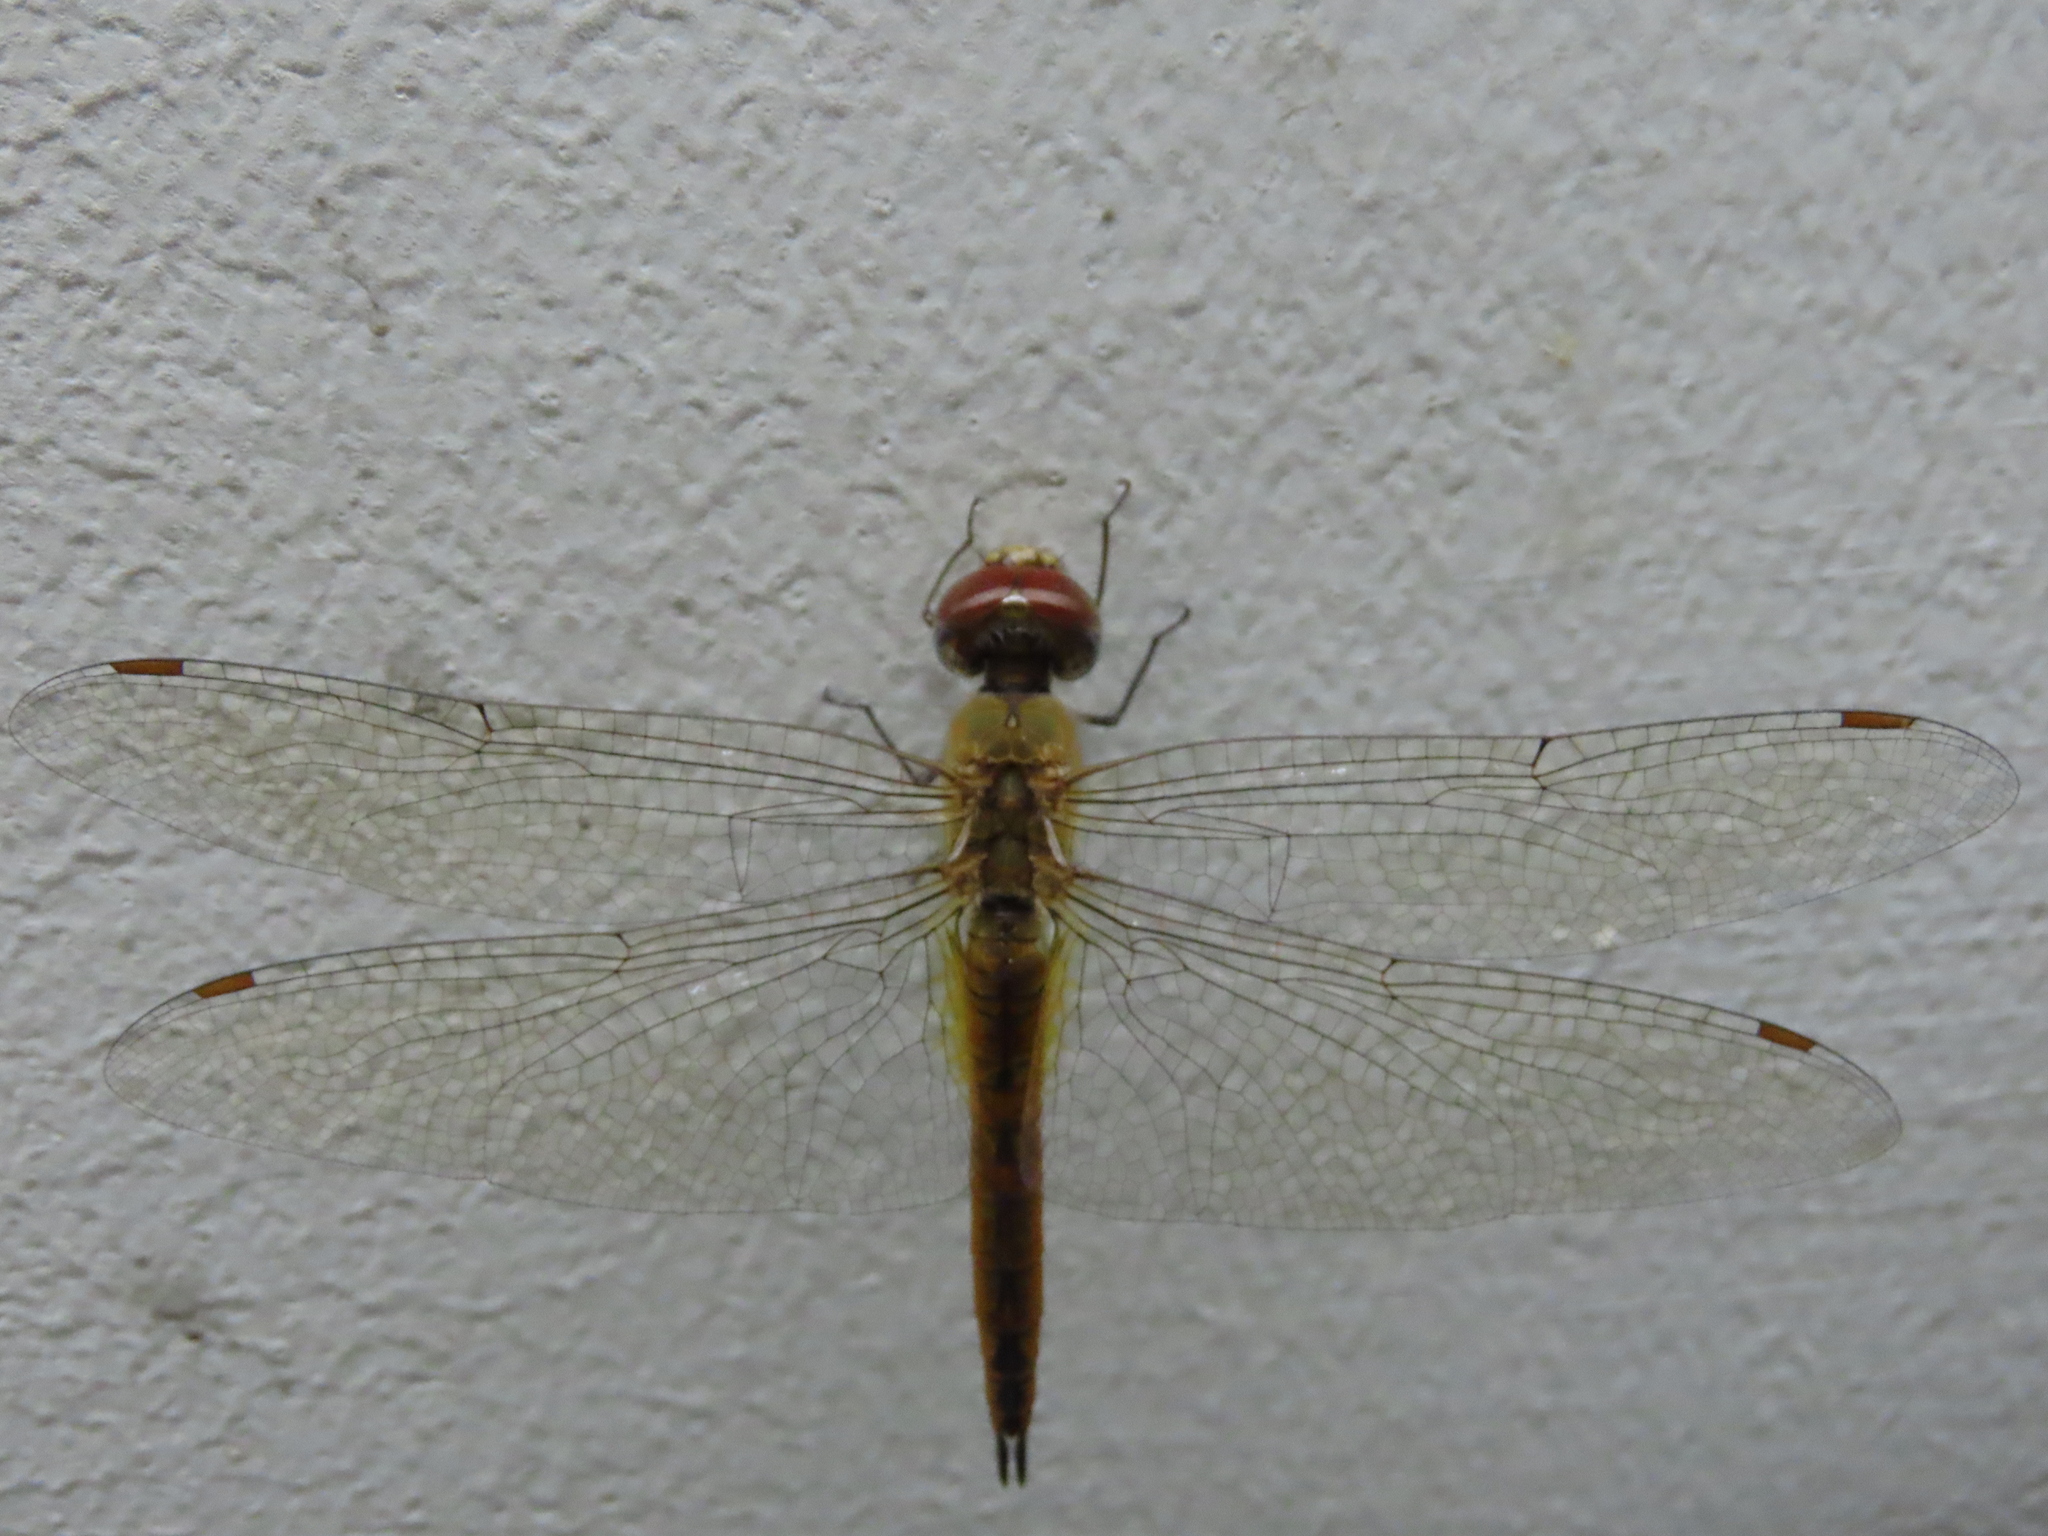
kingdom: Animalia
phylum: Arthropoda
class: Insecta
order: Odonata
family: Libellulidae
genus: Pantala
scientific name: Pantala flavescens
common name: Wandering glider
